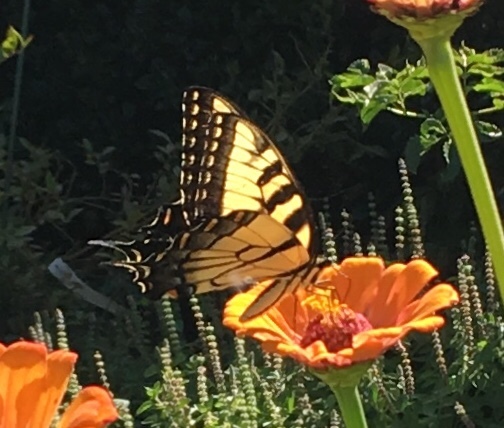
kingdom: Animalia
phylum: Arthropoda
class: Insecta
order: Lepidoptera
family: Papilionidae
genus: Papilio
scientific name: Papilio glaucus
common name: Tiger swallowtail
